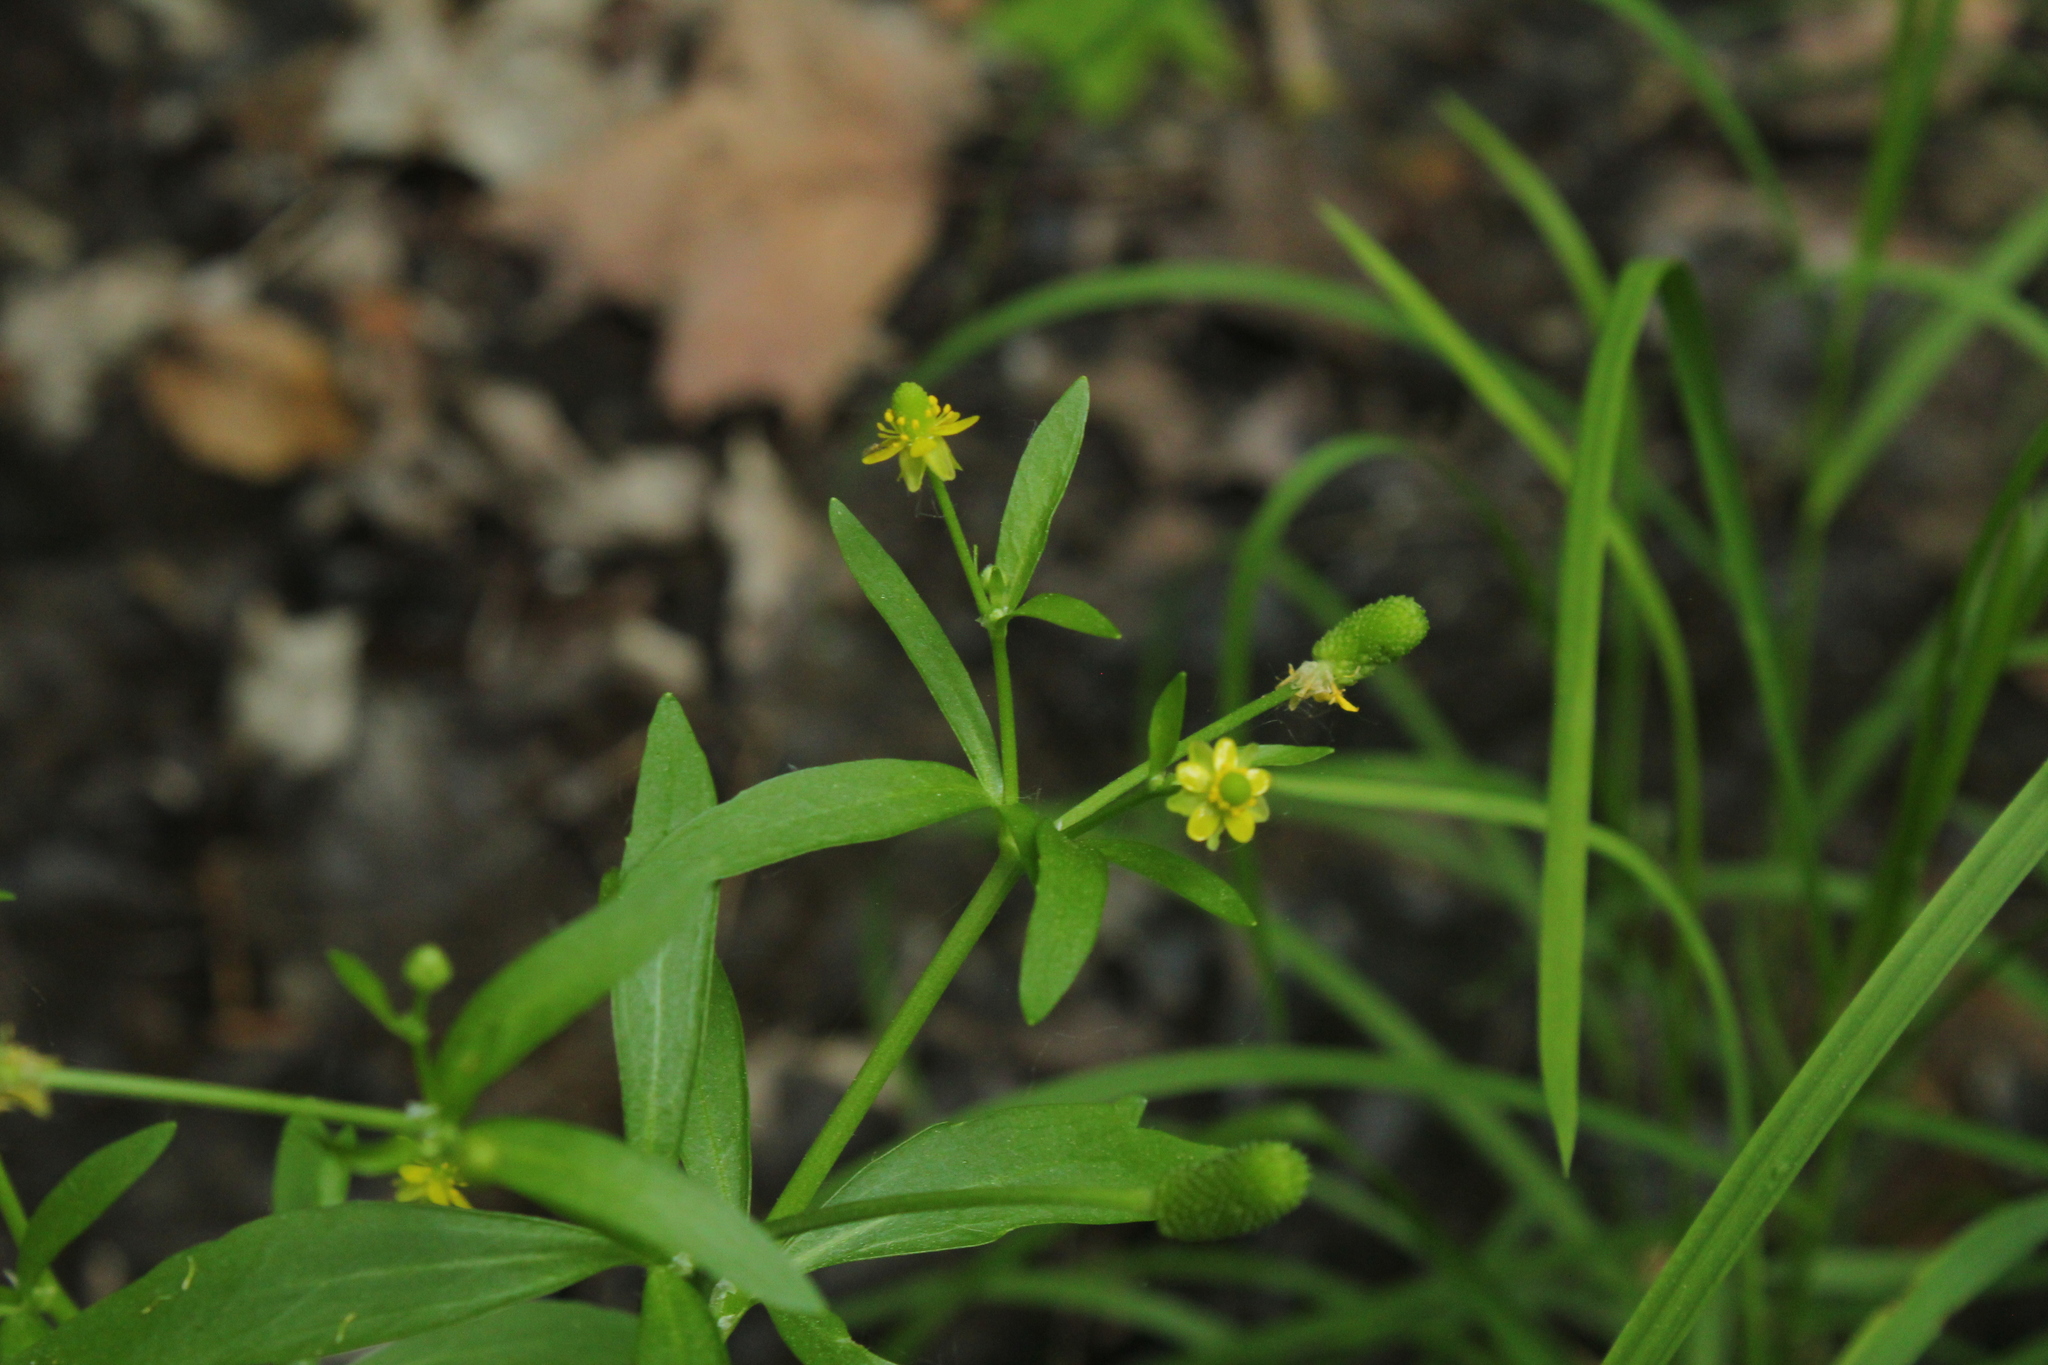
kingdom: Plantae
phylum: Tracheophyta
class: Magnoliopsida
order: Ranunculales
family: Ranunculaceae
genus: Ranunculus
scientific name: Ranunculus sceleratus
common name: Celery-leaved buttercup
